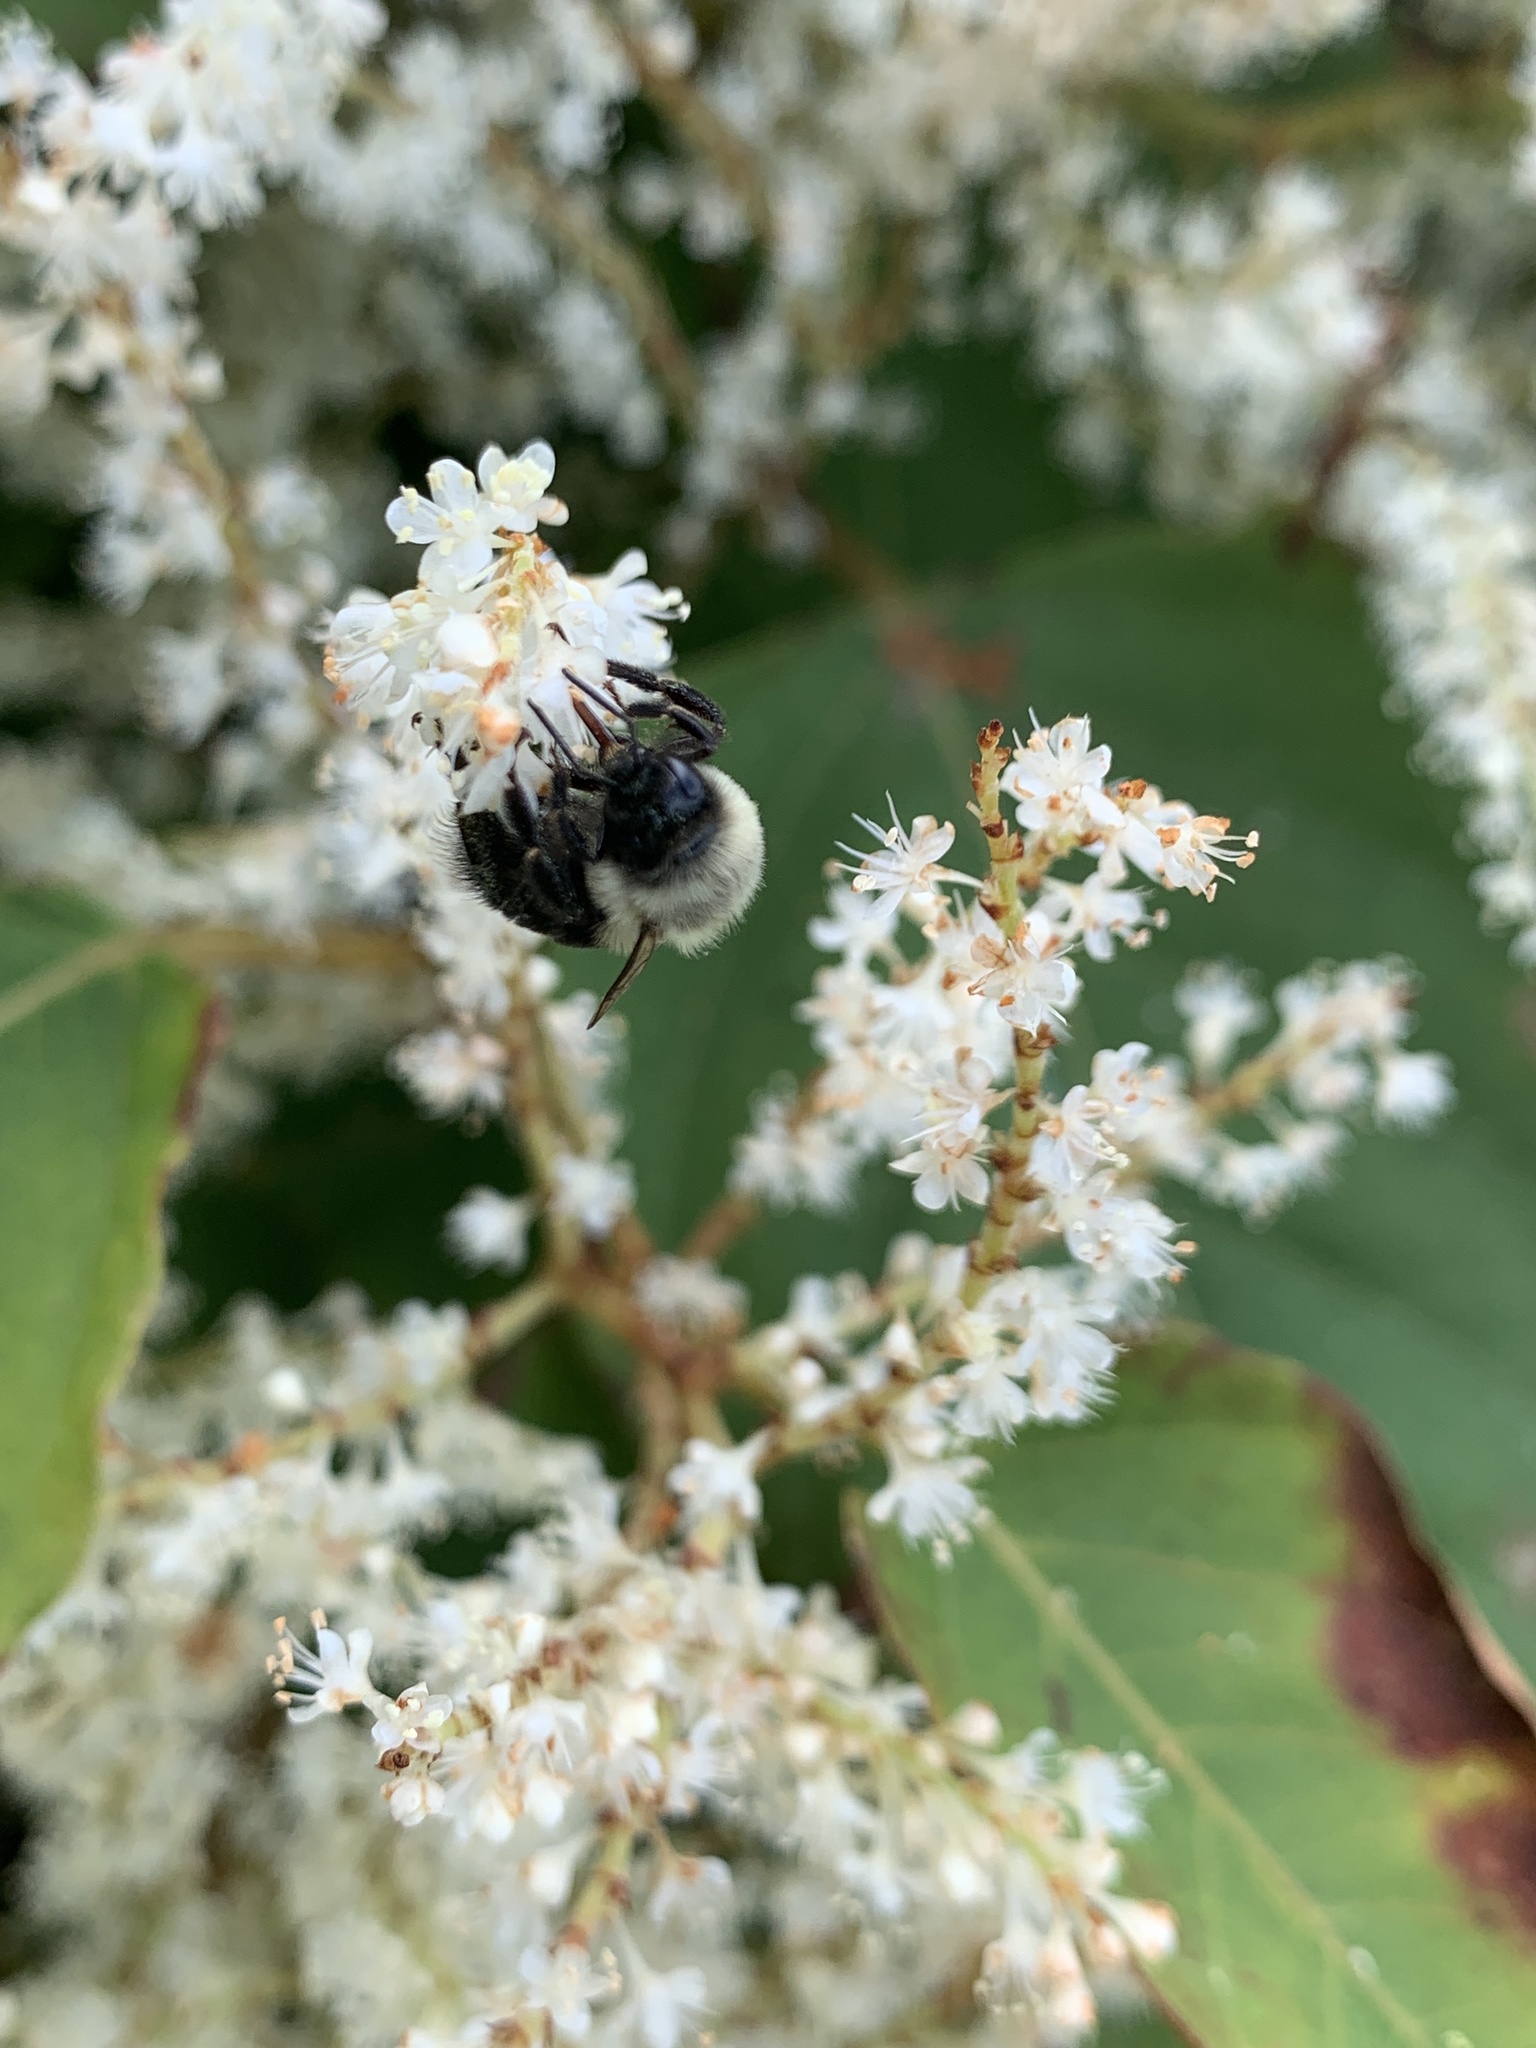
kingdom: Animalia
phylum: Arthropoda
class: Insecta
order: Hymenoptera
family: Apidae
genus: Bombus
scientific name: Bombus impatiens
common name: Common eastern bumble bee
